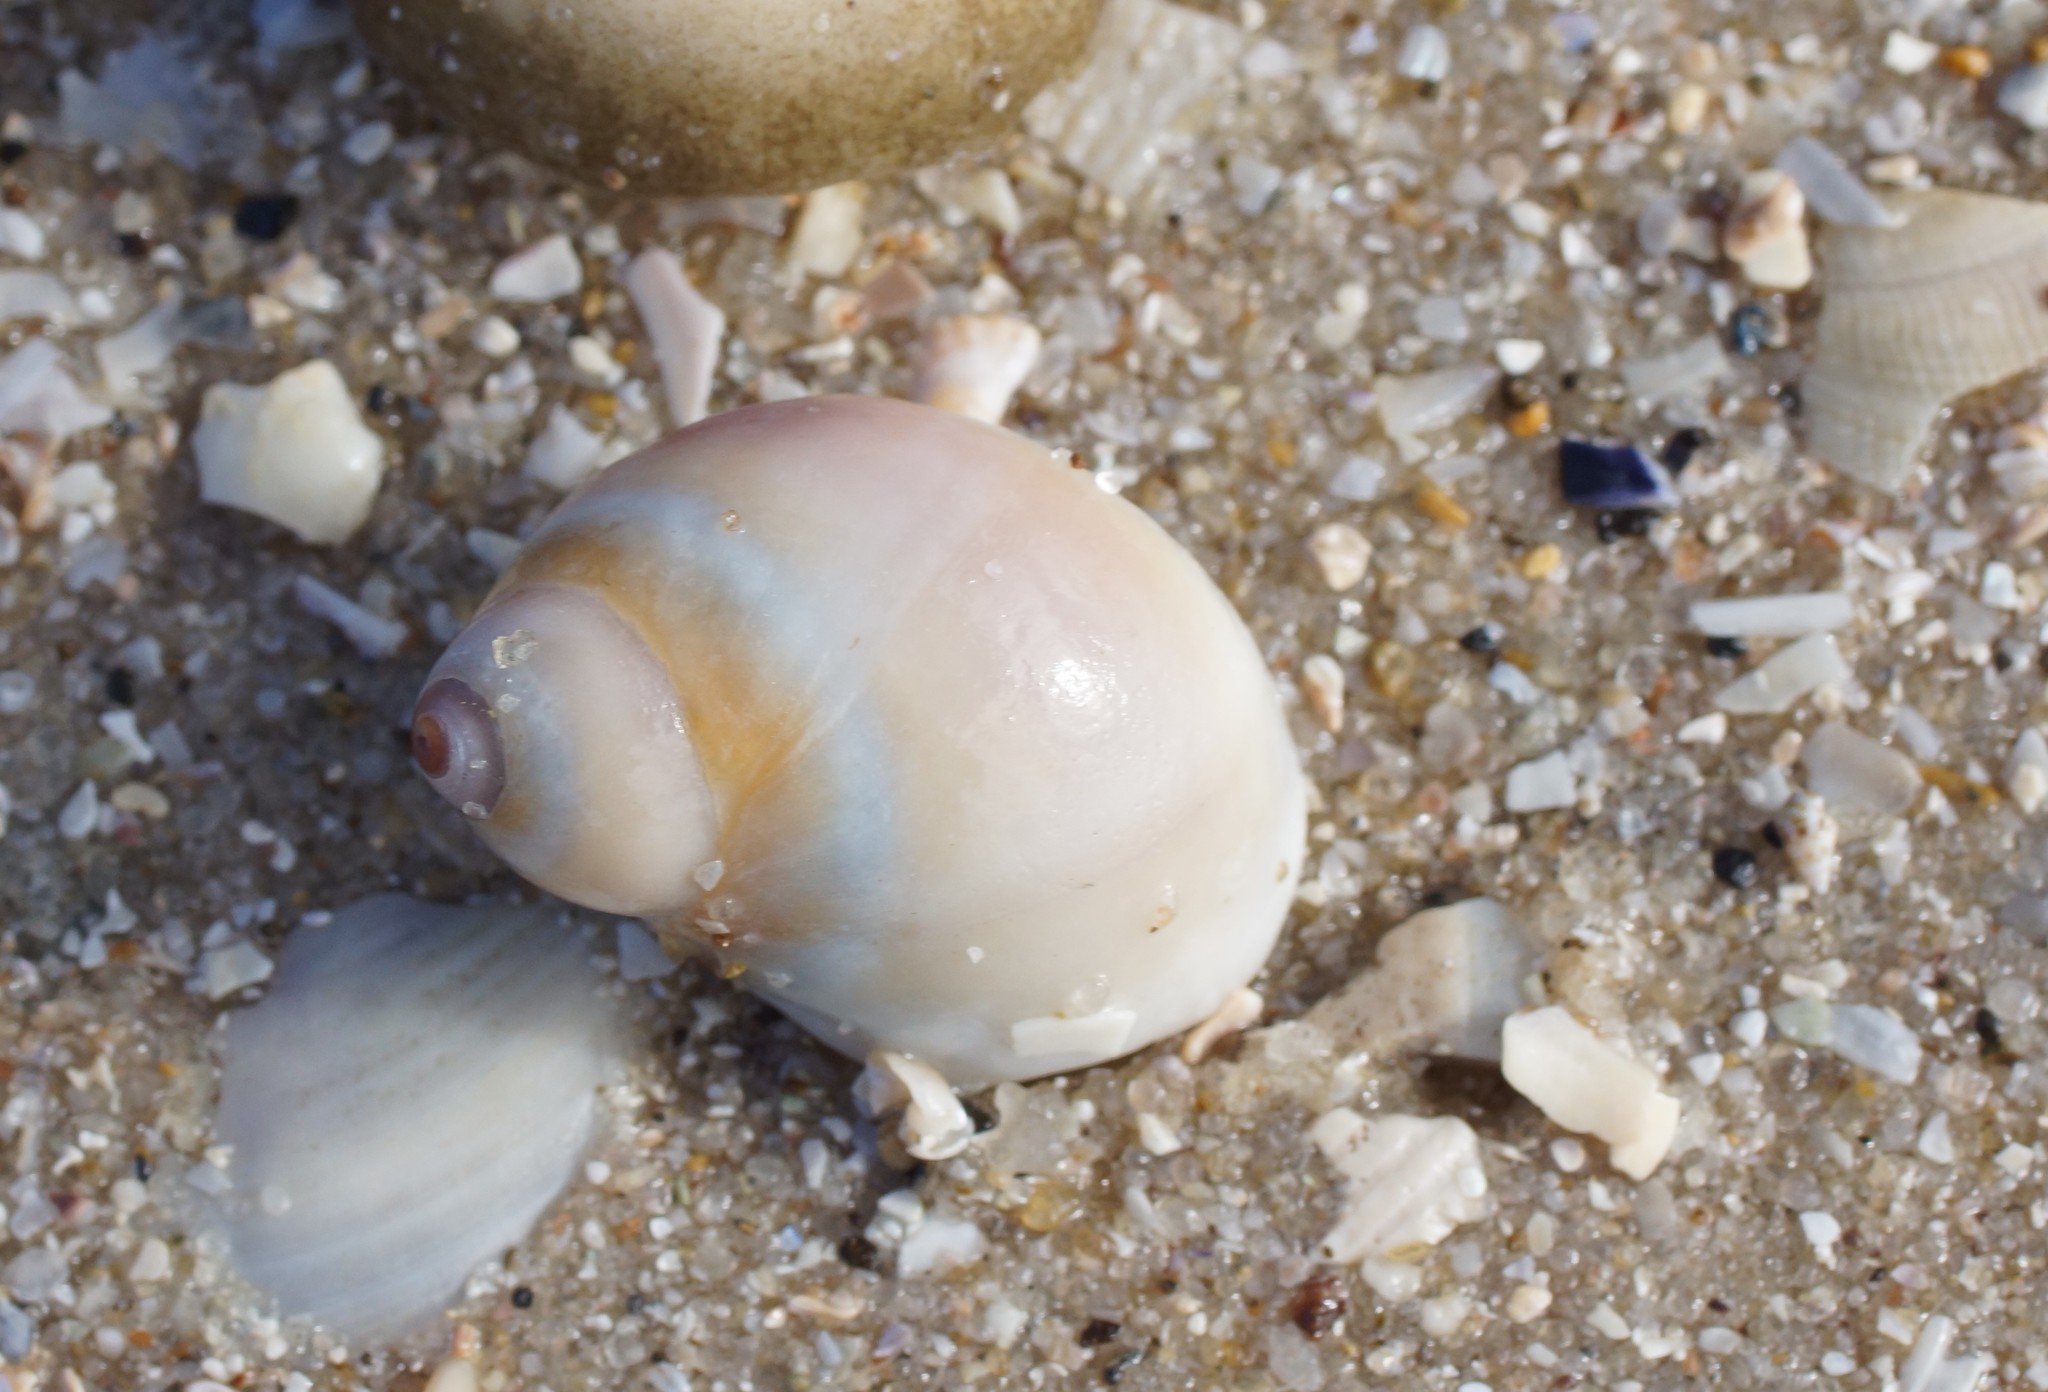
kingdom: Animalia
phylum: Mollusca
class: Gastropoda
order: Littorinimorpha
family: Naticidae
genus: Conuber
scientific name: Conuber conicum
